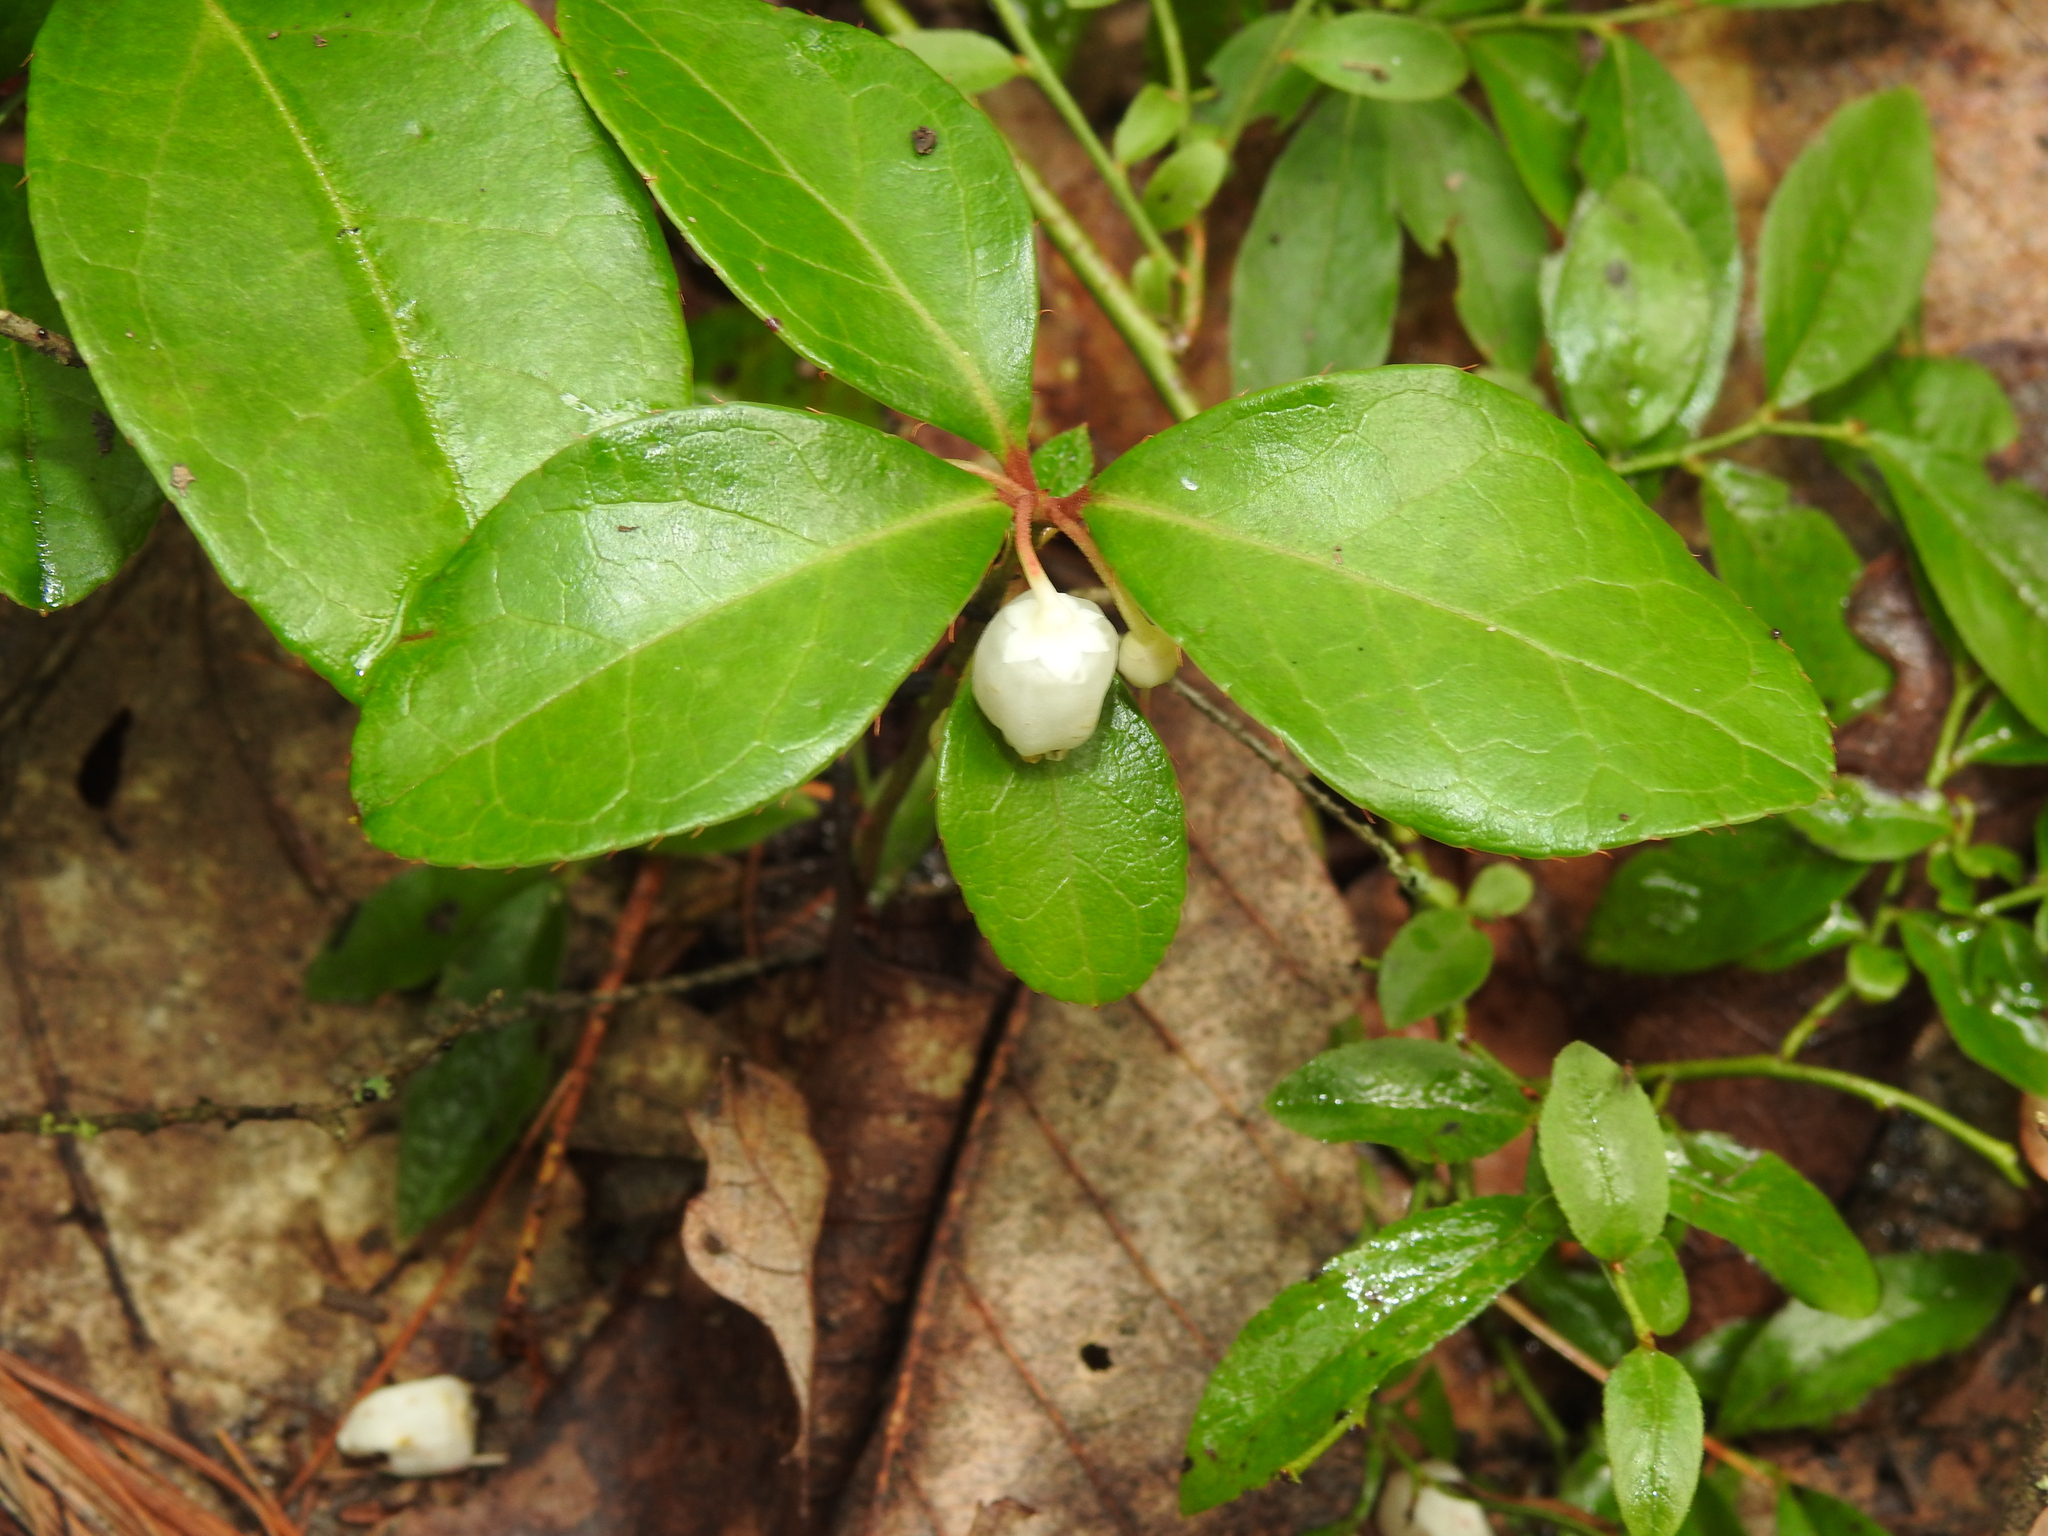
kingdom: Plantae
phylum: Tracheophyta
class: Magnoliopsida
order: Ericales
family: Ericaceae
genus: Gaultheria
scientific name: Gaultheria procumbens
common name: Checkerberry
